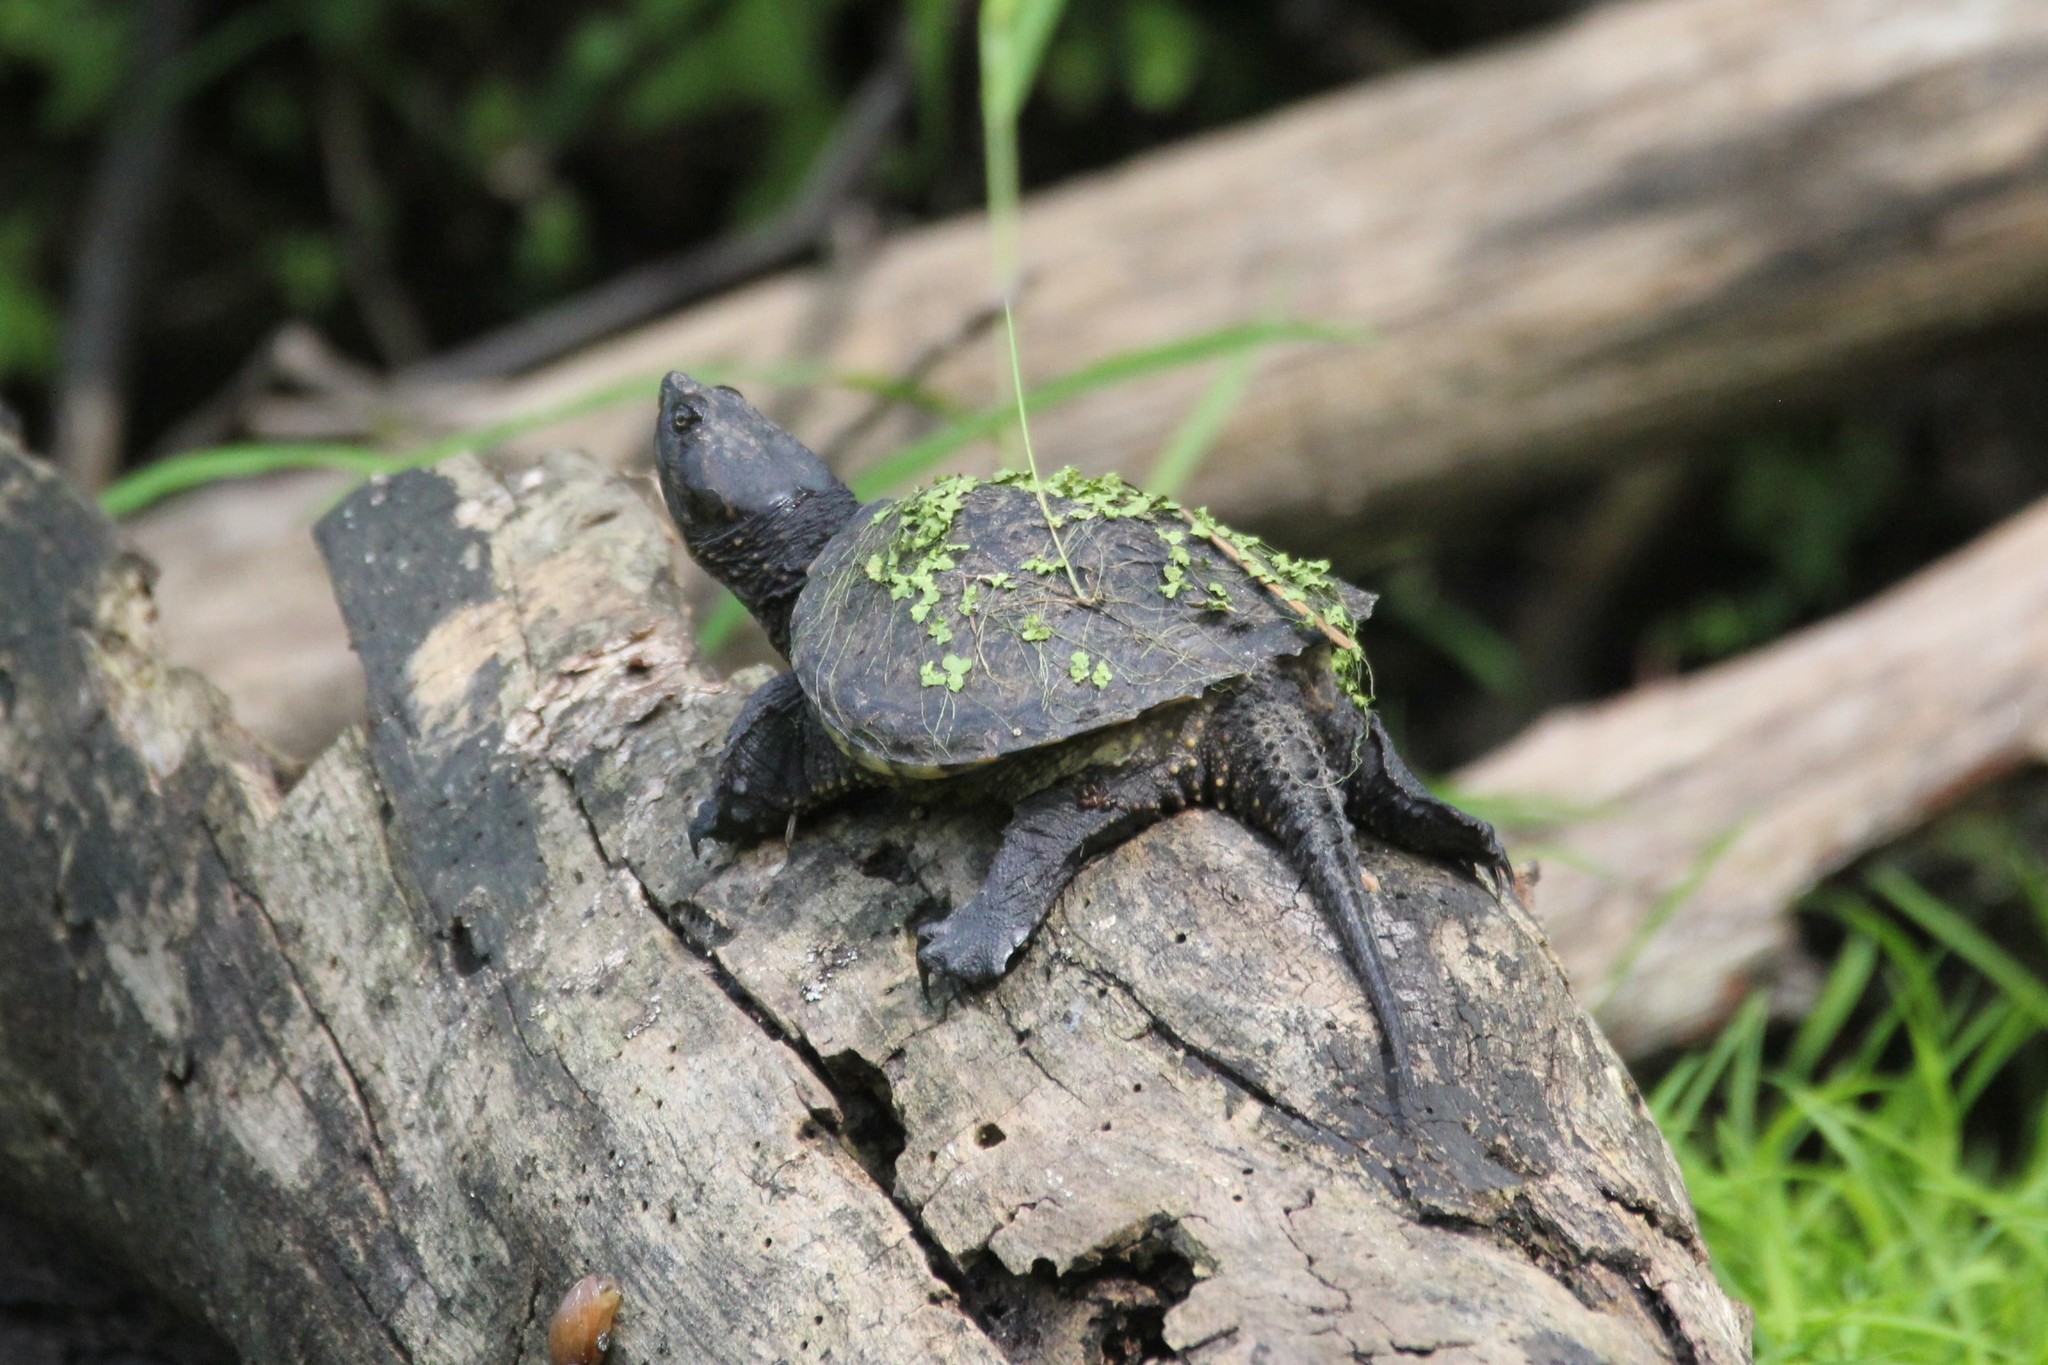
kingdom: Animalia
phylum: Chordata
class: Testudines
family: Chelydridae
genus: Chelydra
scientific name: Chelydra serpentina
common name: Common snapping turtle
